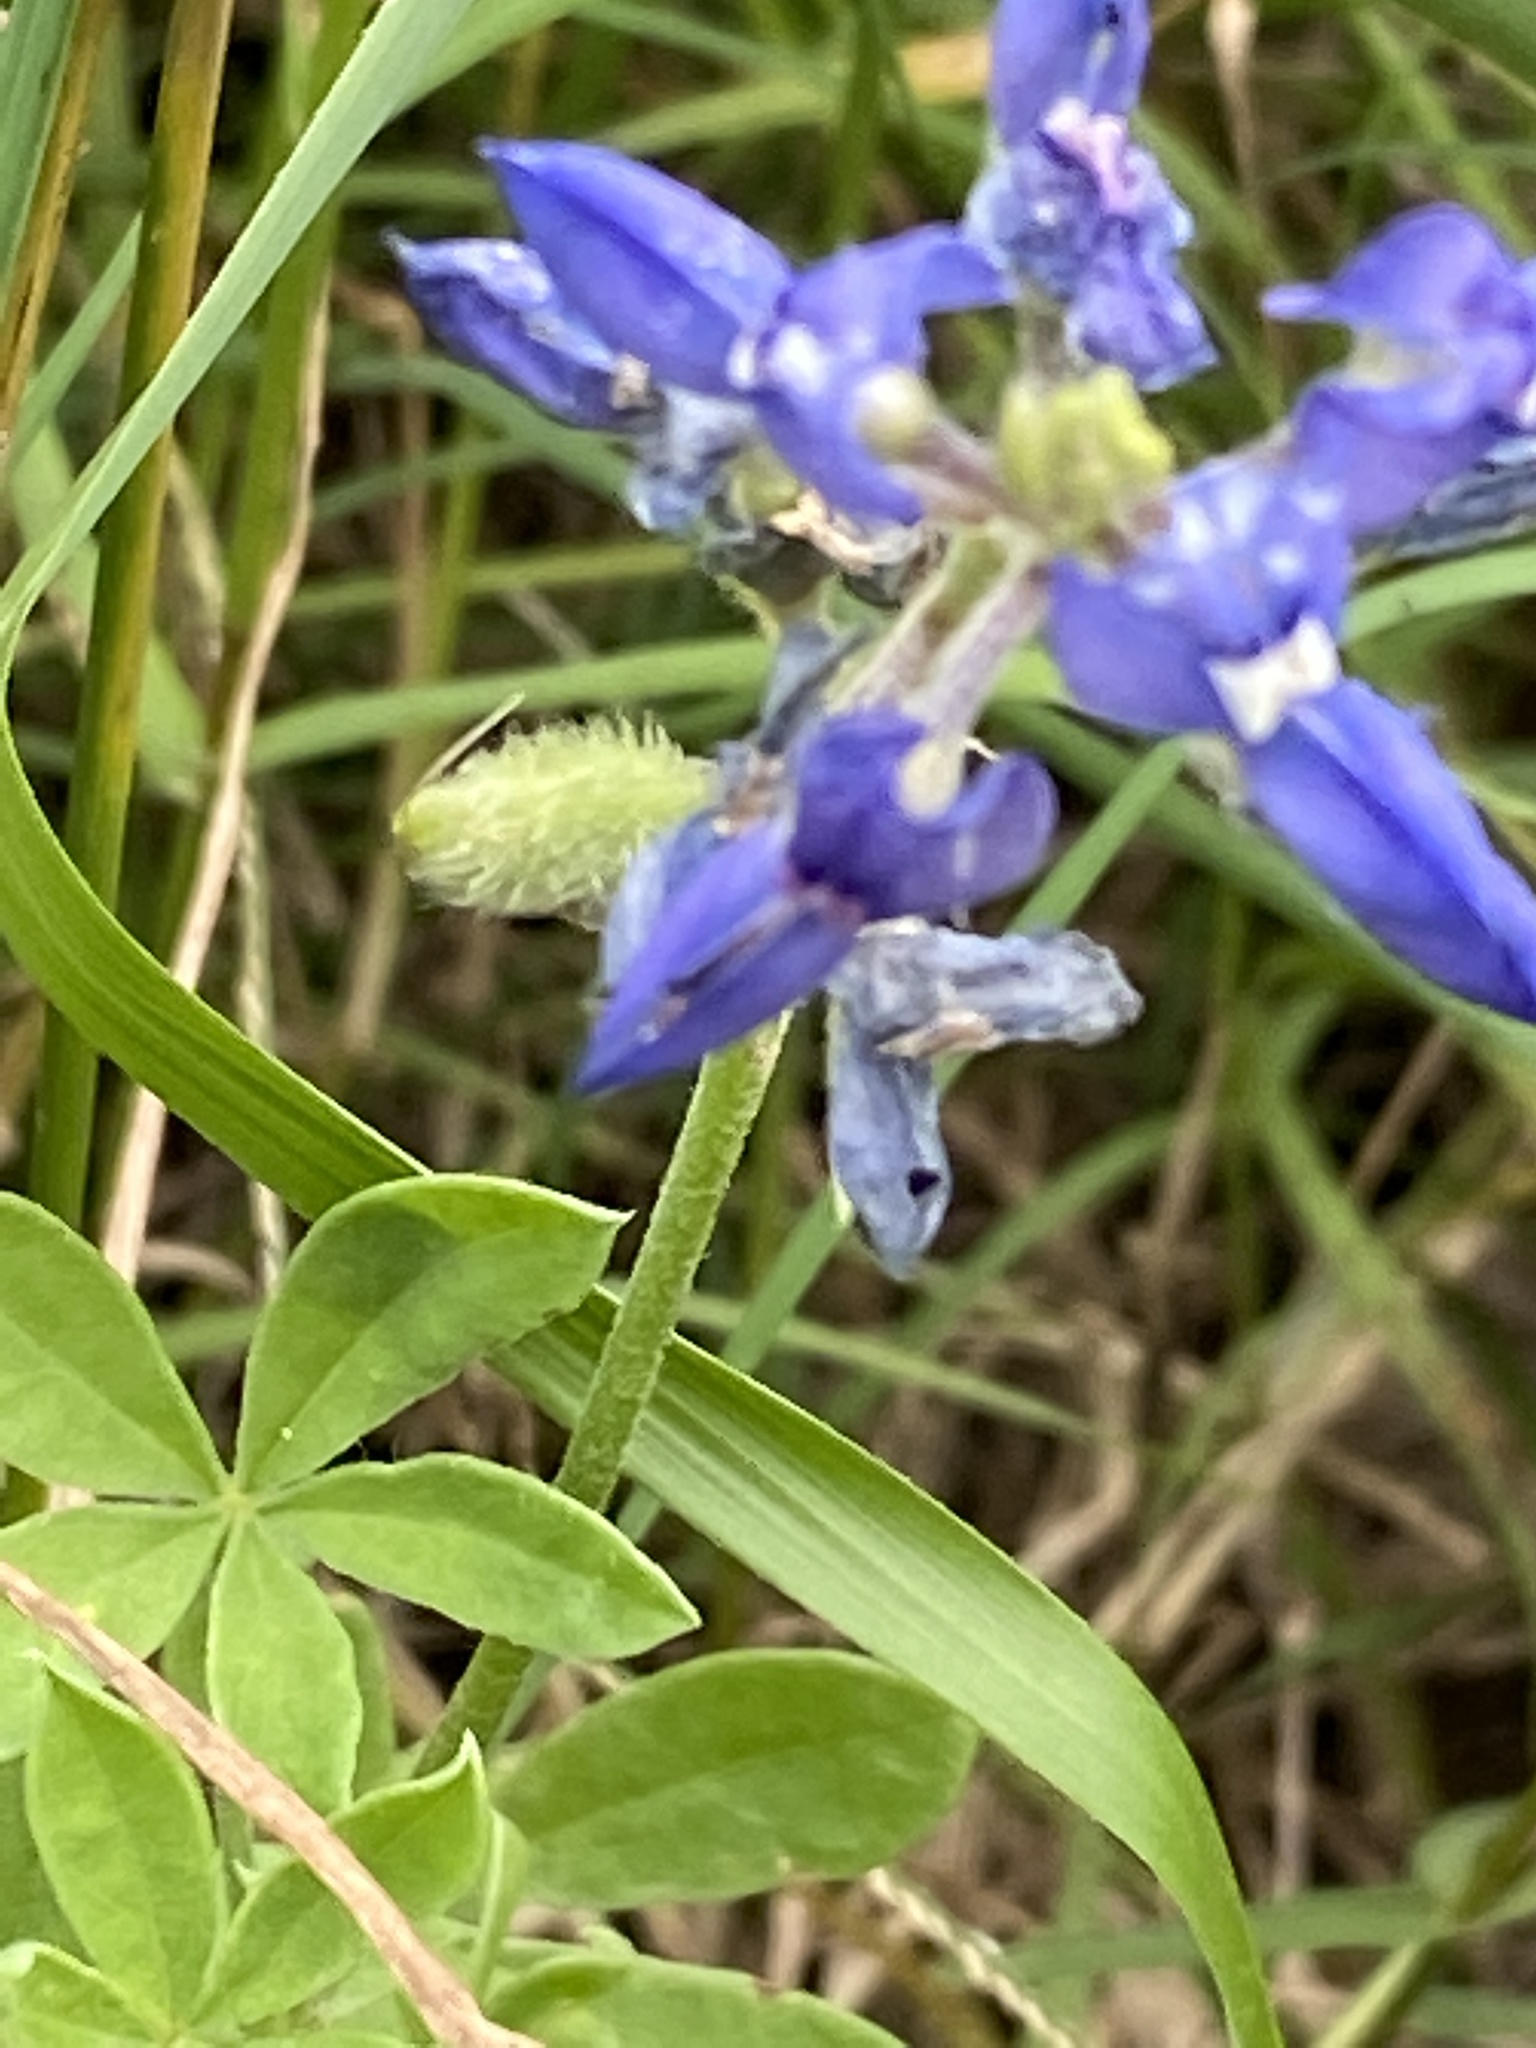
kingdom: Plantae
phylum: Tracheophyta
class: Magnoliopsida
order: Fabales
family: Fabaceae
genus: Lupinus
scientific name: Lupinus texensis
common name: Texas bluebonnet
